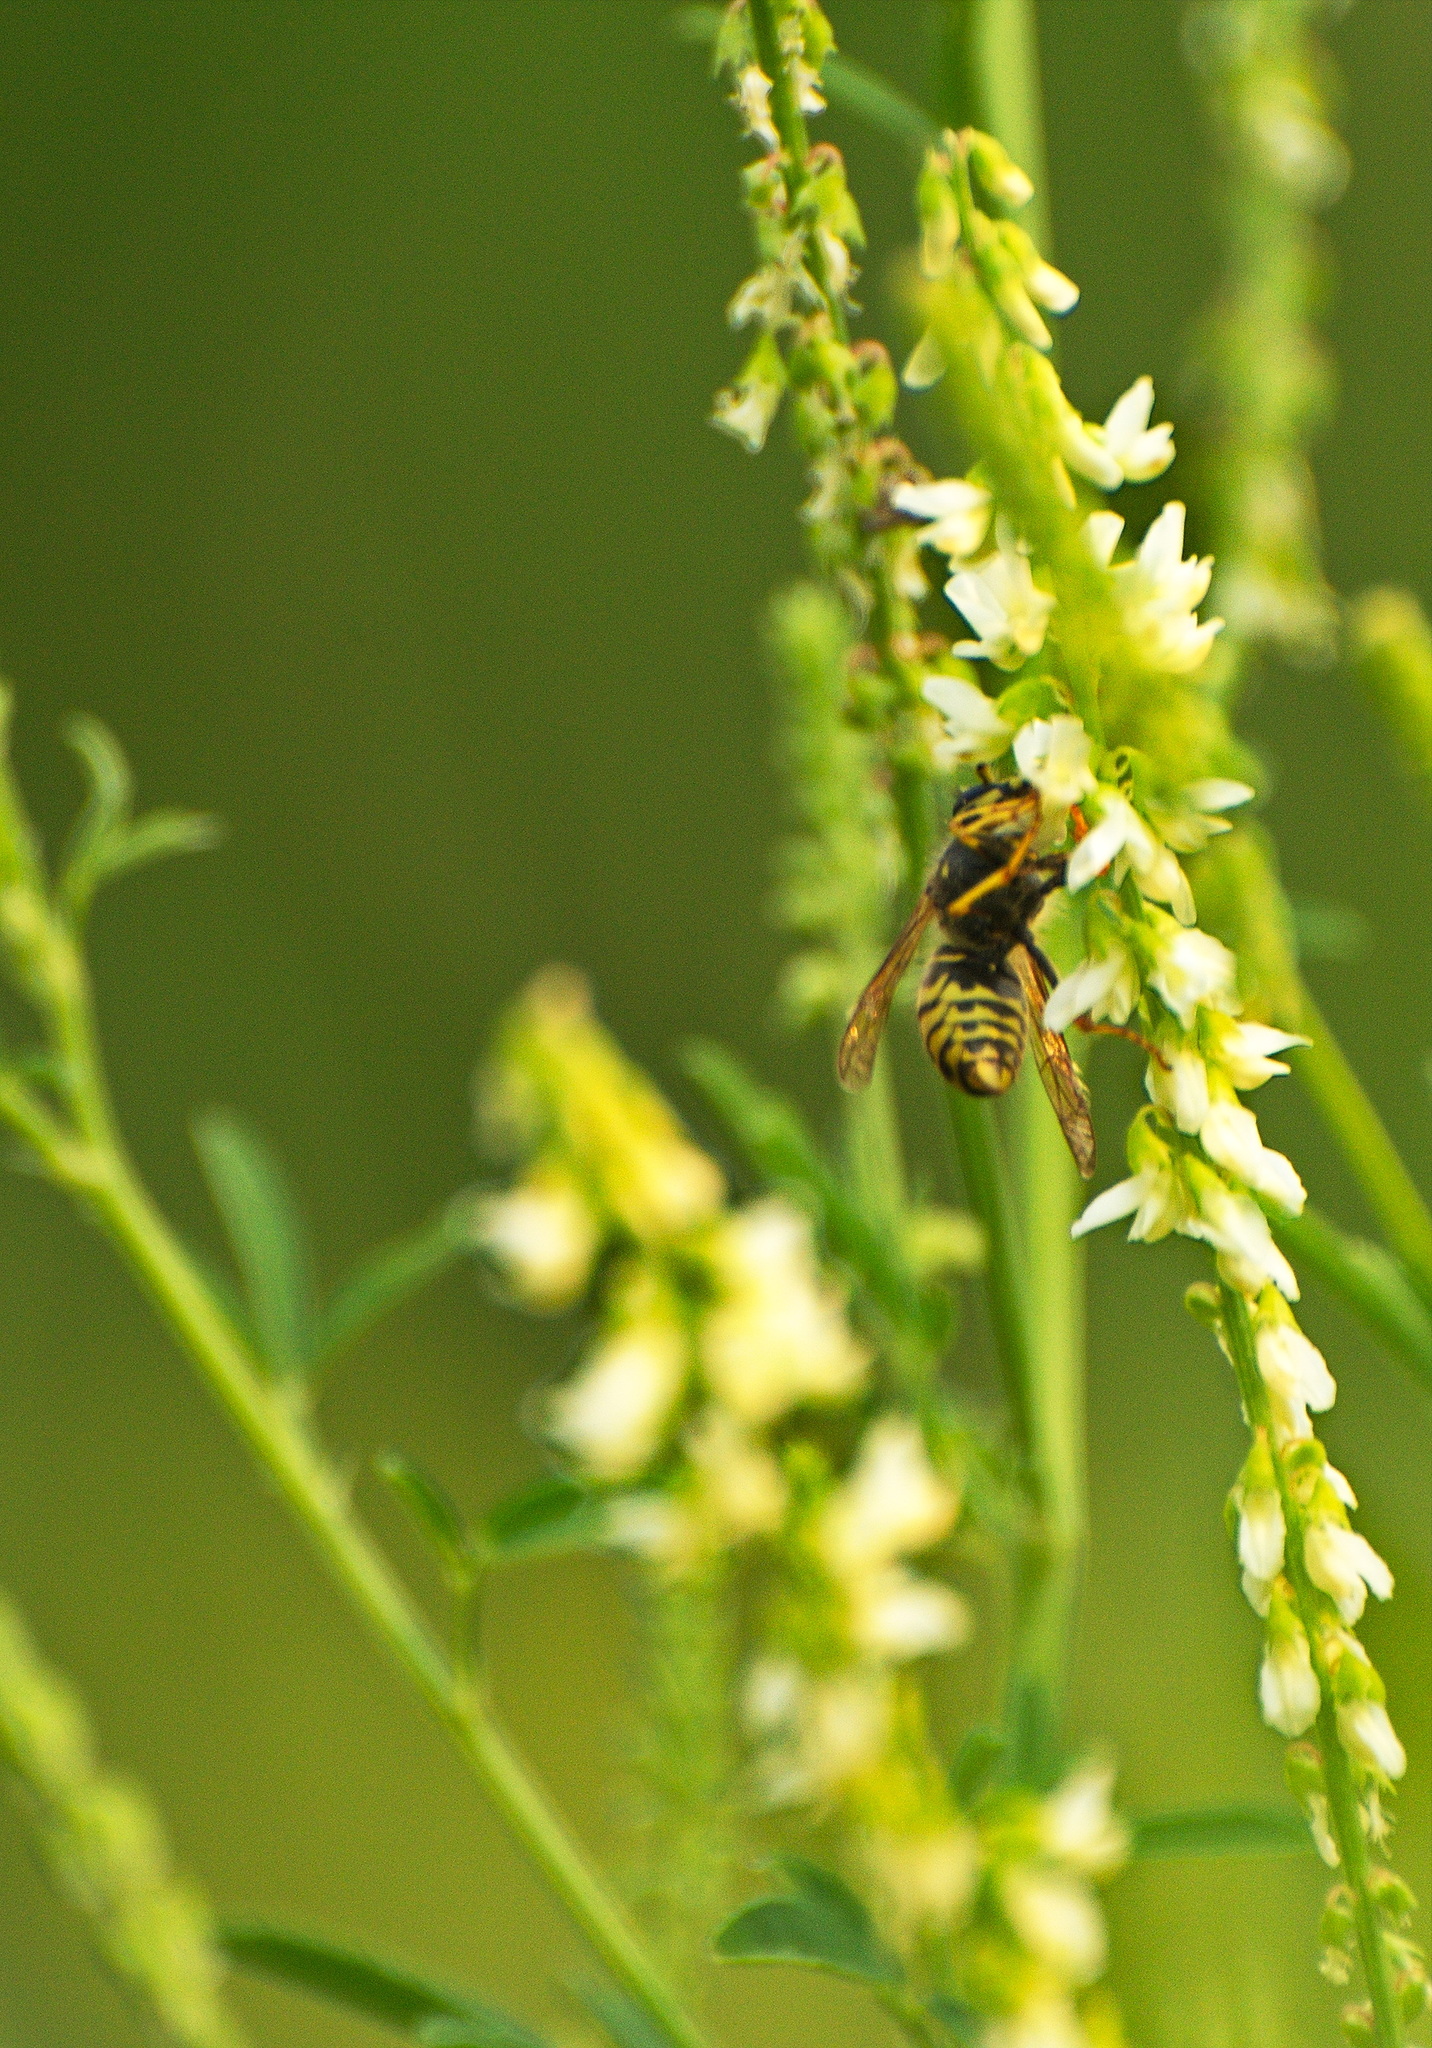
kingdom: Animalia
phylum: Arthropoda
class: Insecta
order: Hymenoptera
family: Vespidae
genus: Dolichovespula
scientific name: Dolichovespula arenaria
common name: Aerial yellowjacket
